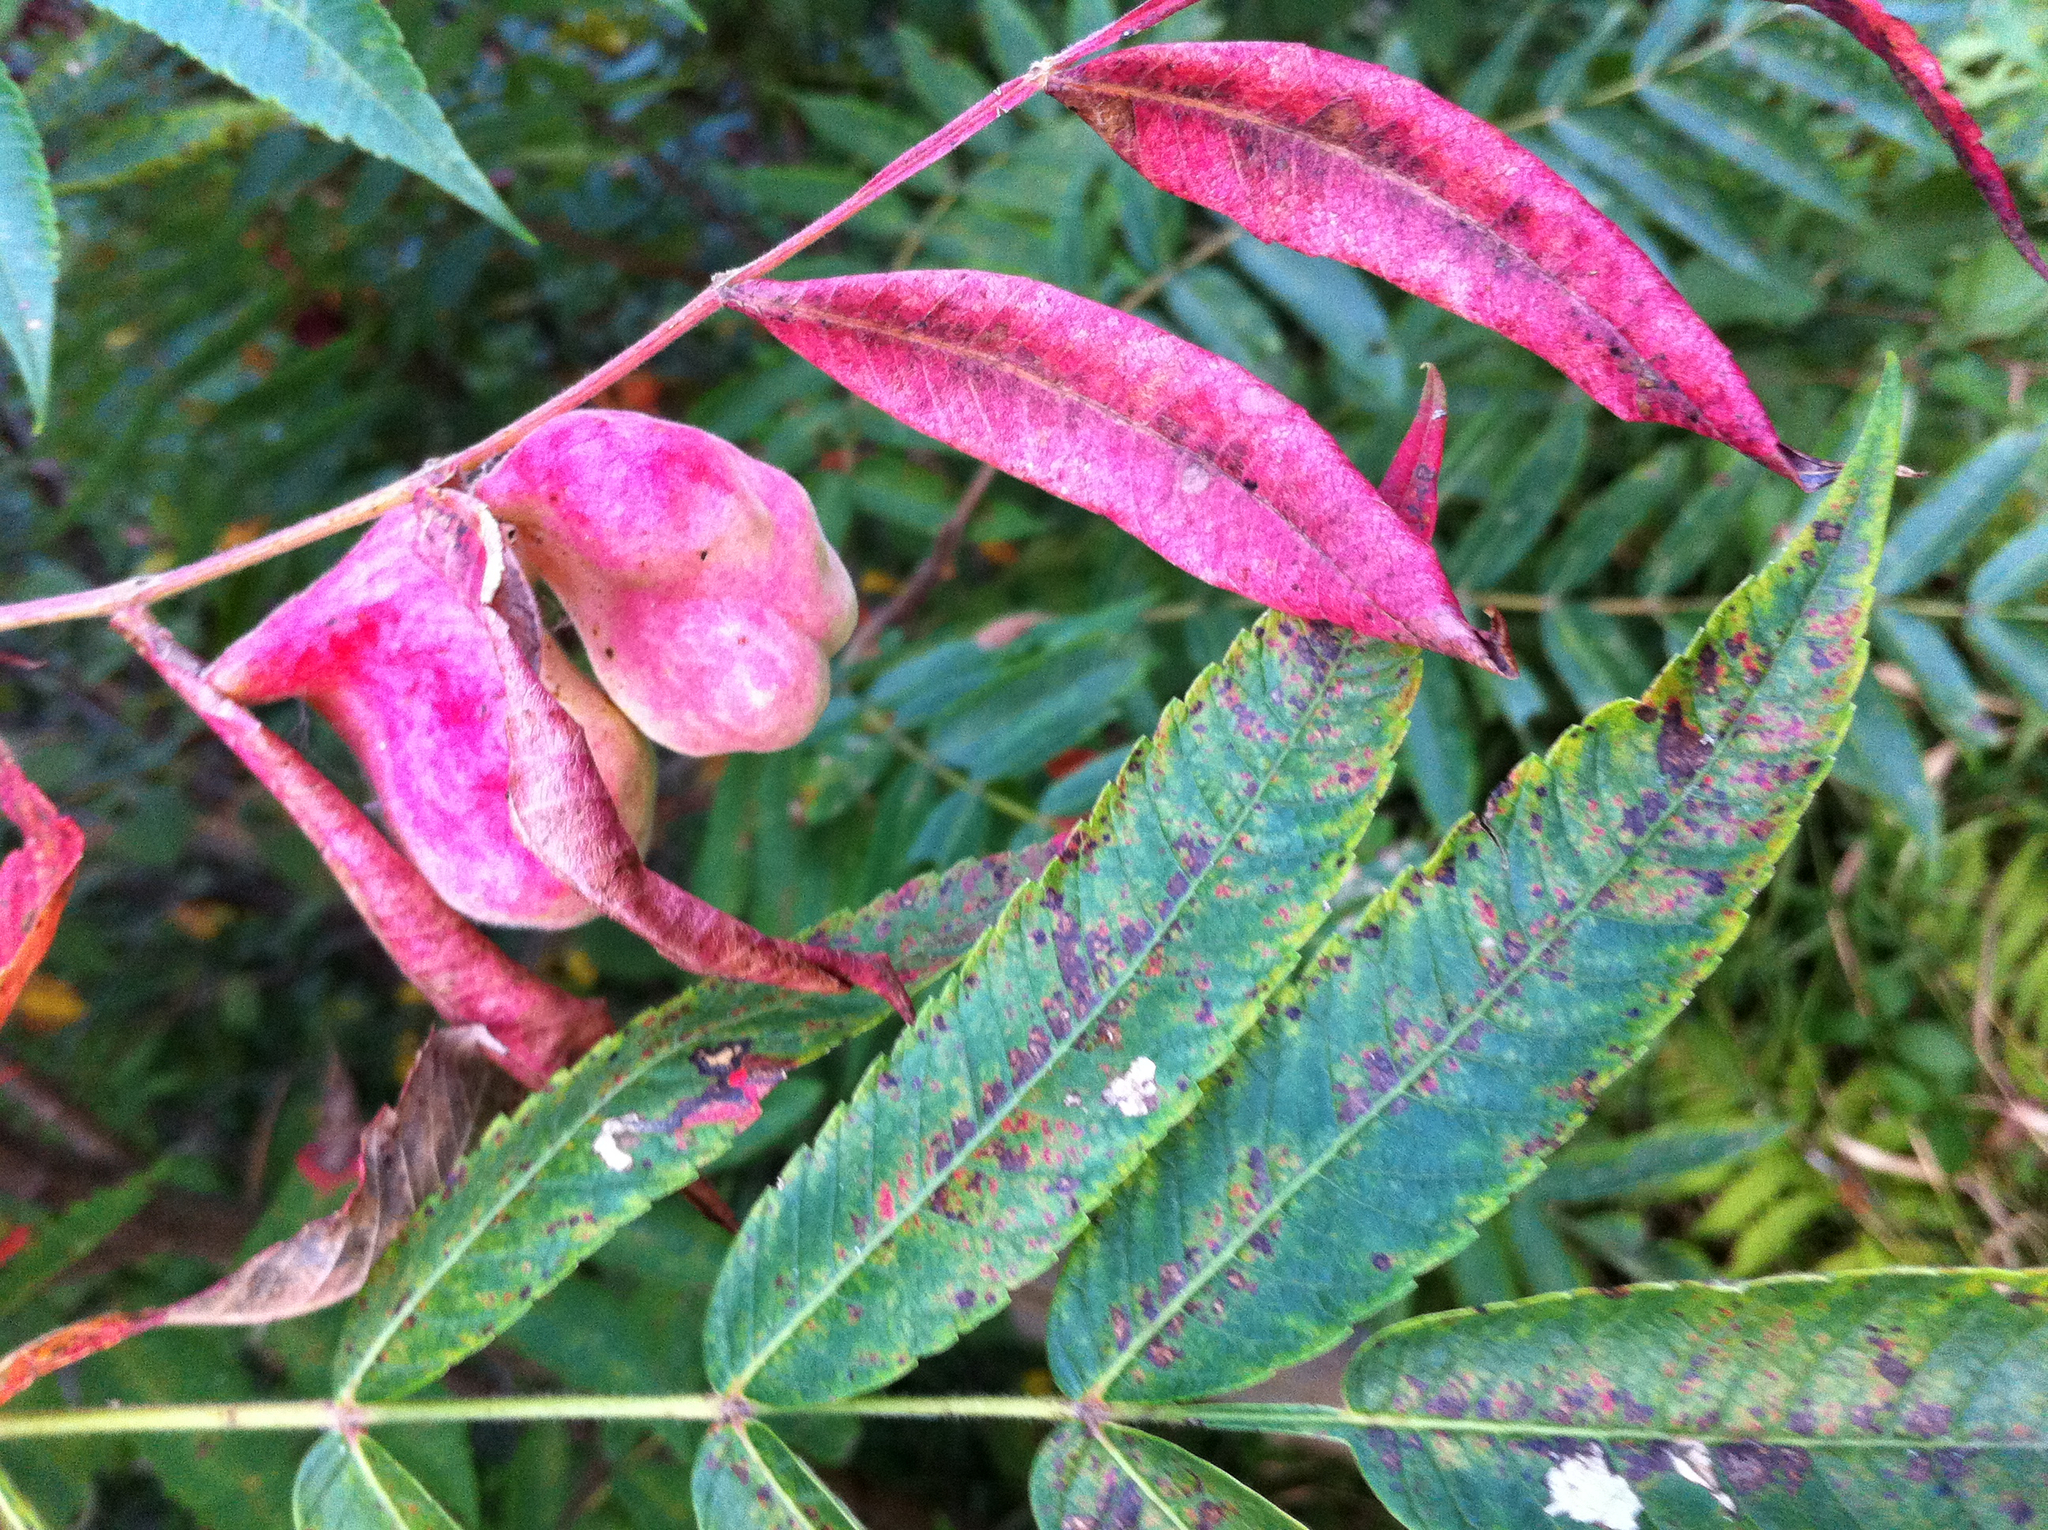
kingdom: Plantae
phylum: Tracheophyta
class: Magnoliopsida
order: Sapindales
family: Anacardiaceae
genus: Rhus
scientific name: Rhus typhina
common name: Staghorn sumac
